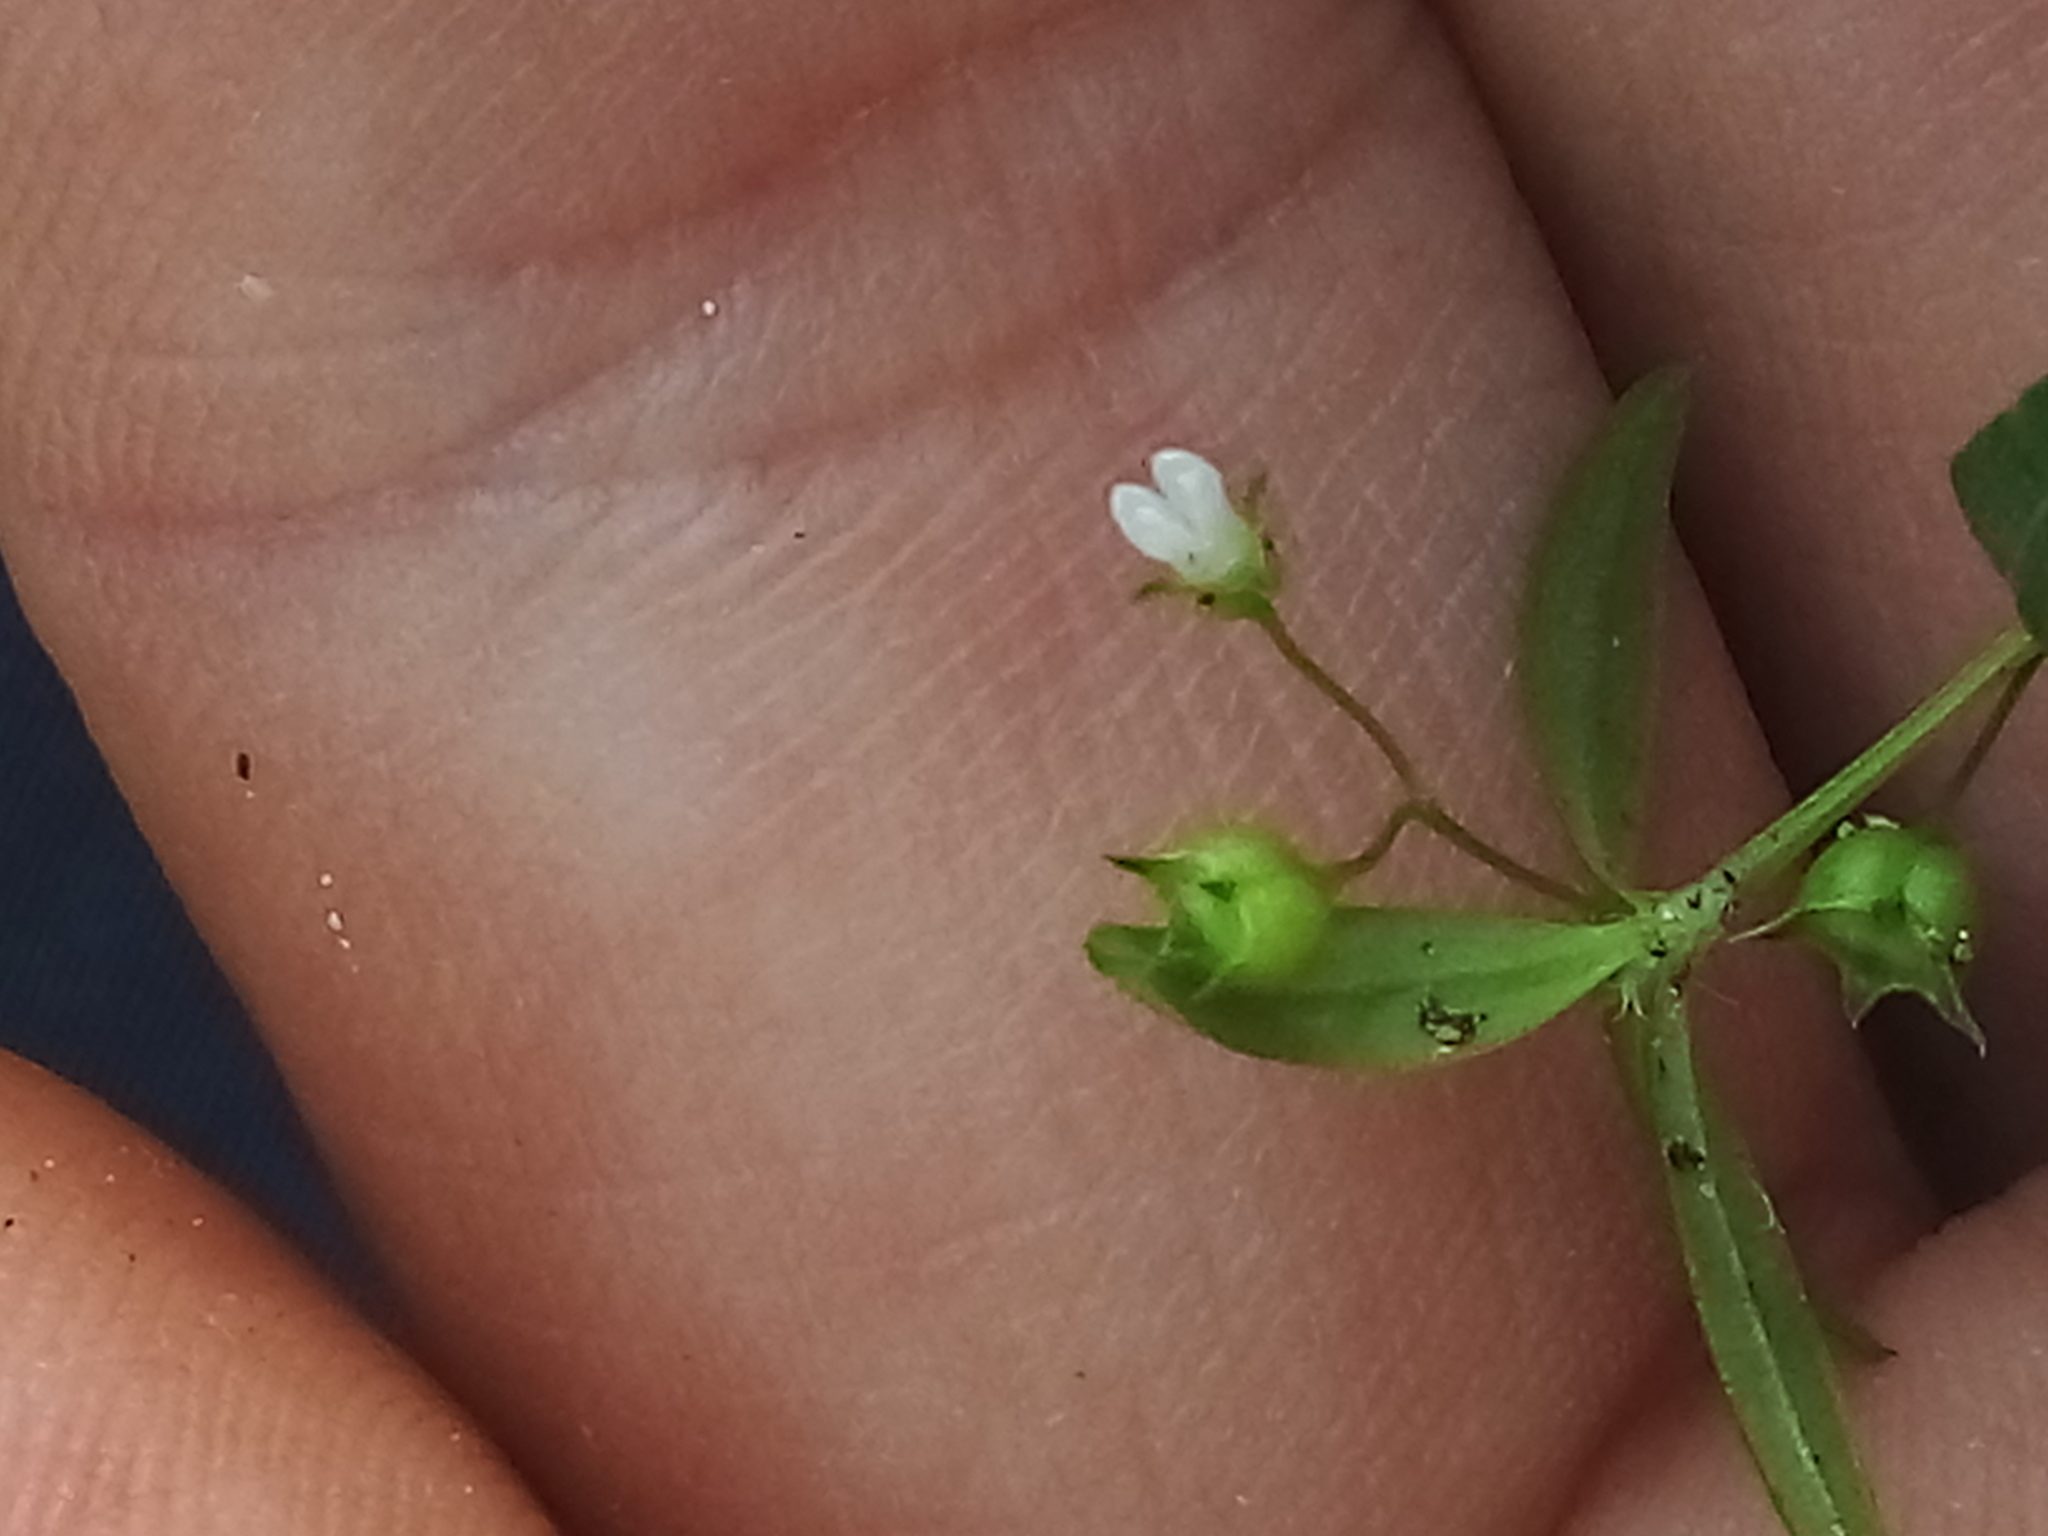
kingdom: Plantae
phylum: Tracheophyta
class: Magnoliopsida
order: Gentianales
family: Rubiaceae
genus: Oldenlandia
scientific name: Oldenlandia corymbosa
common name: Flat-top mille graines
